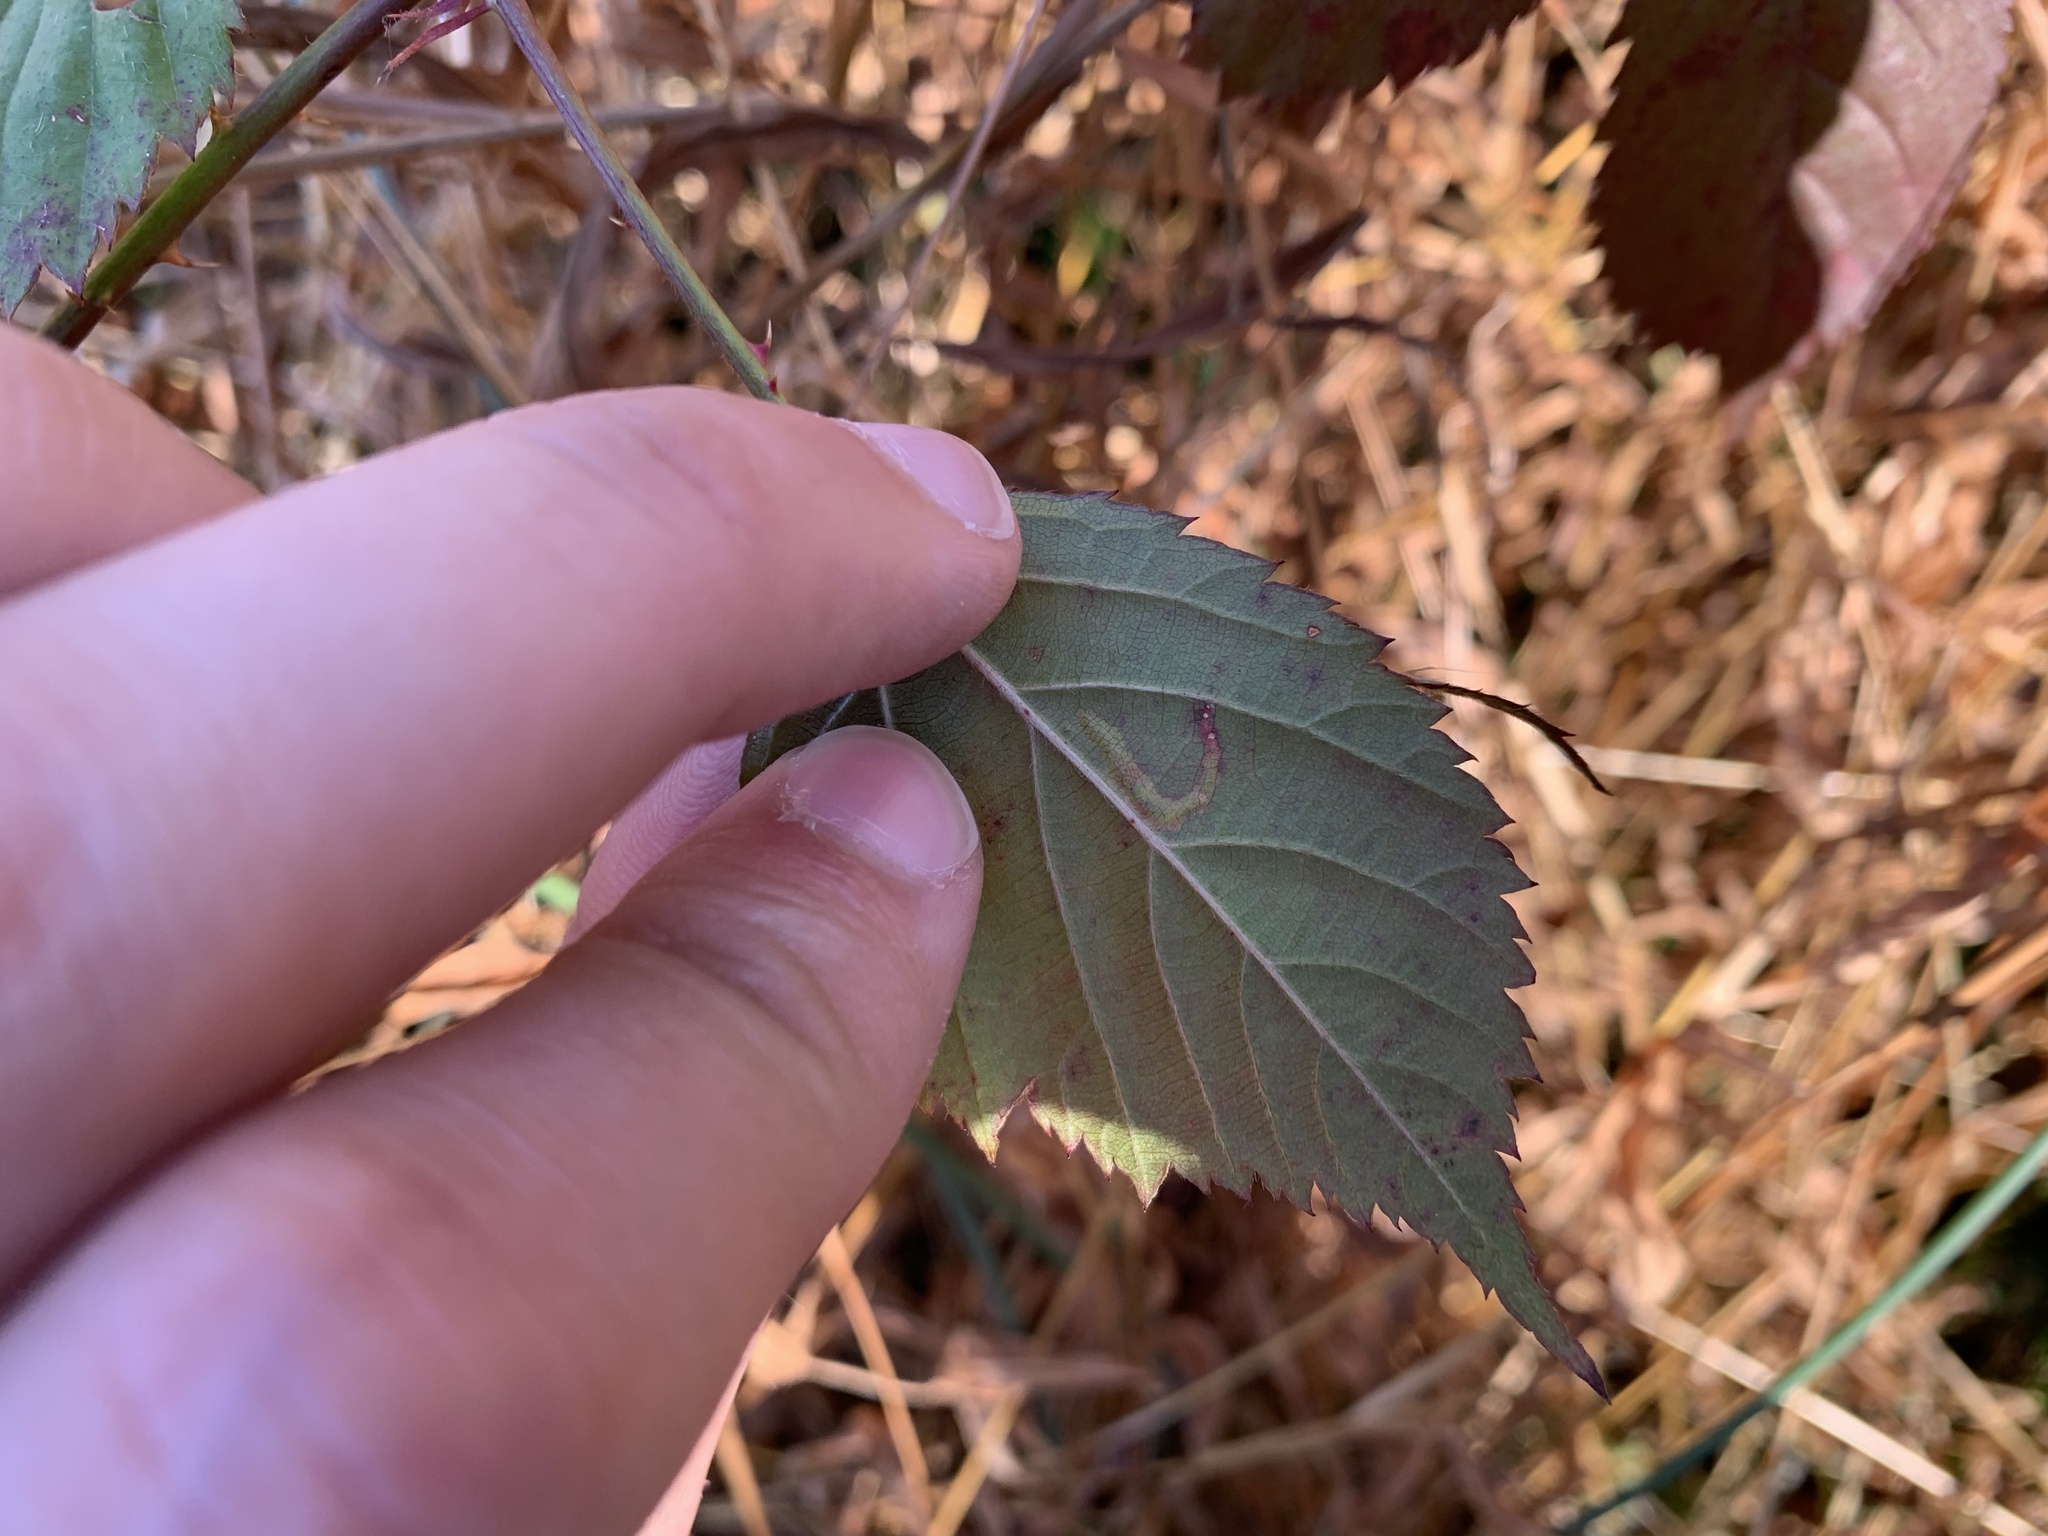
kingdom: Animalia
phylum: Arthropoda
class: Insecta
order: Lepidoptera
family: Tischeriidae
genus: Coptotriche
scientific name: Coptotriche aenea
